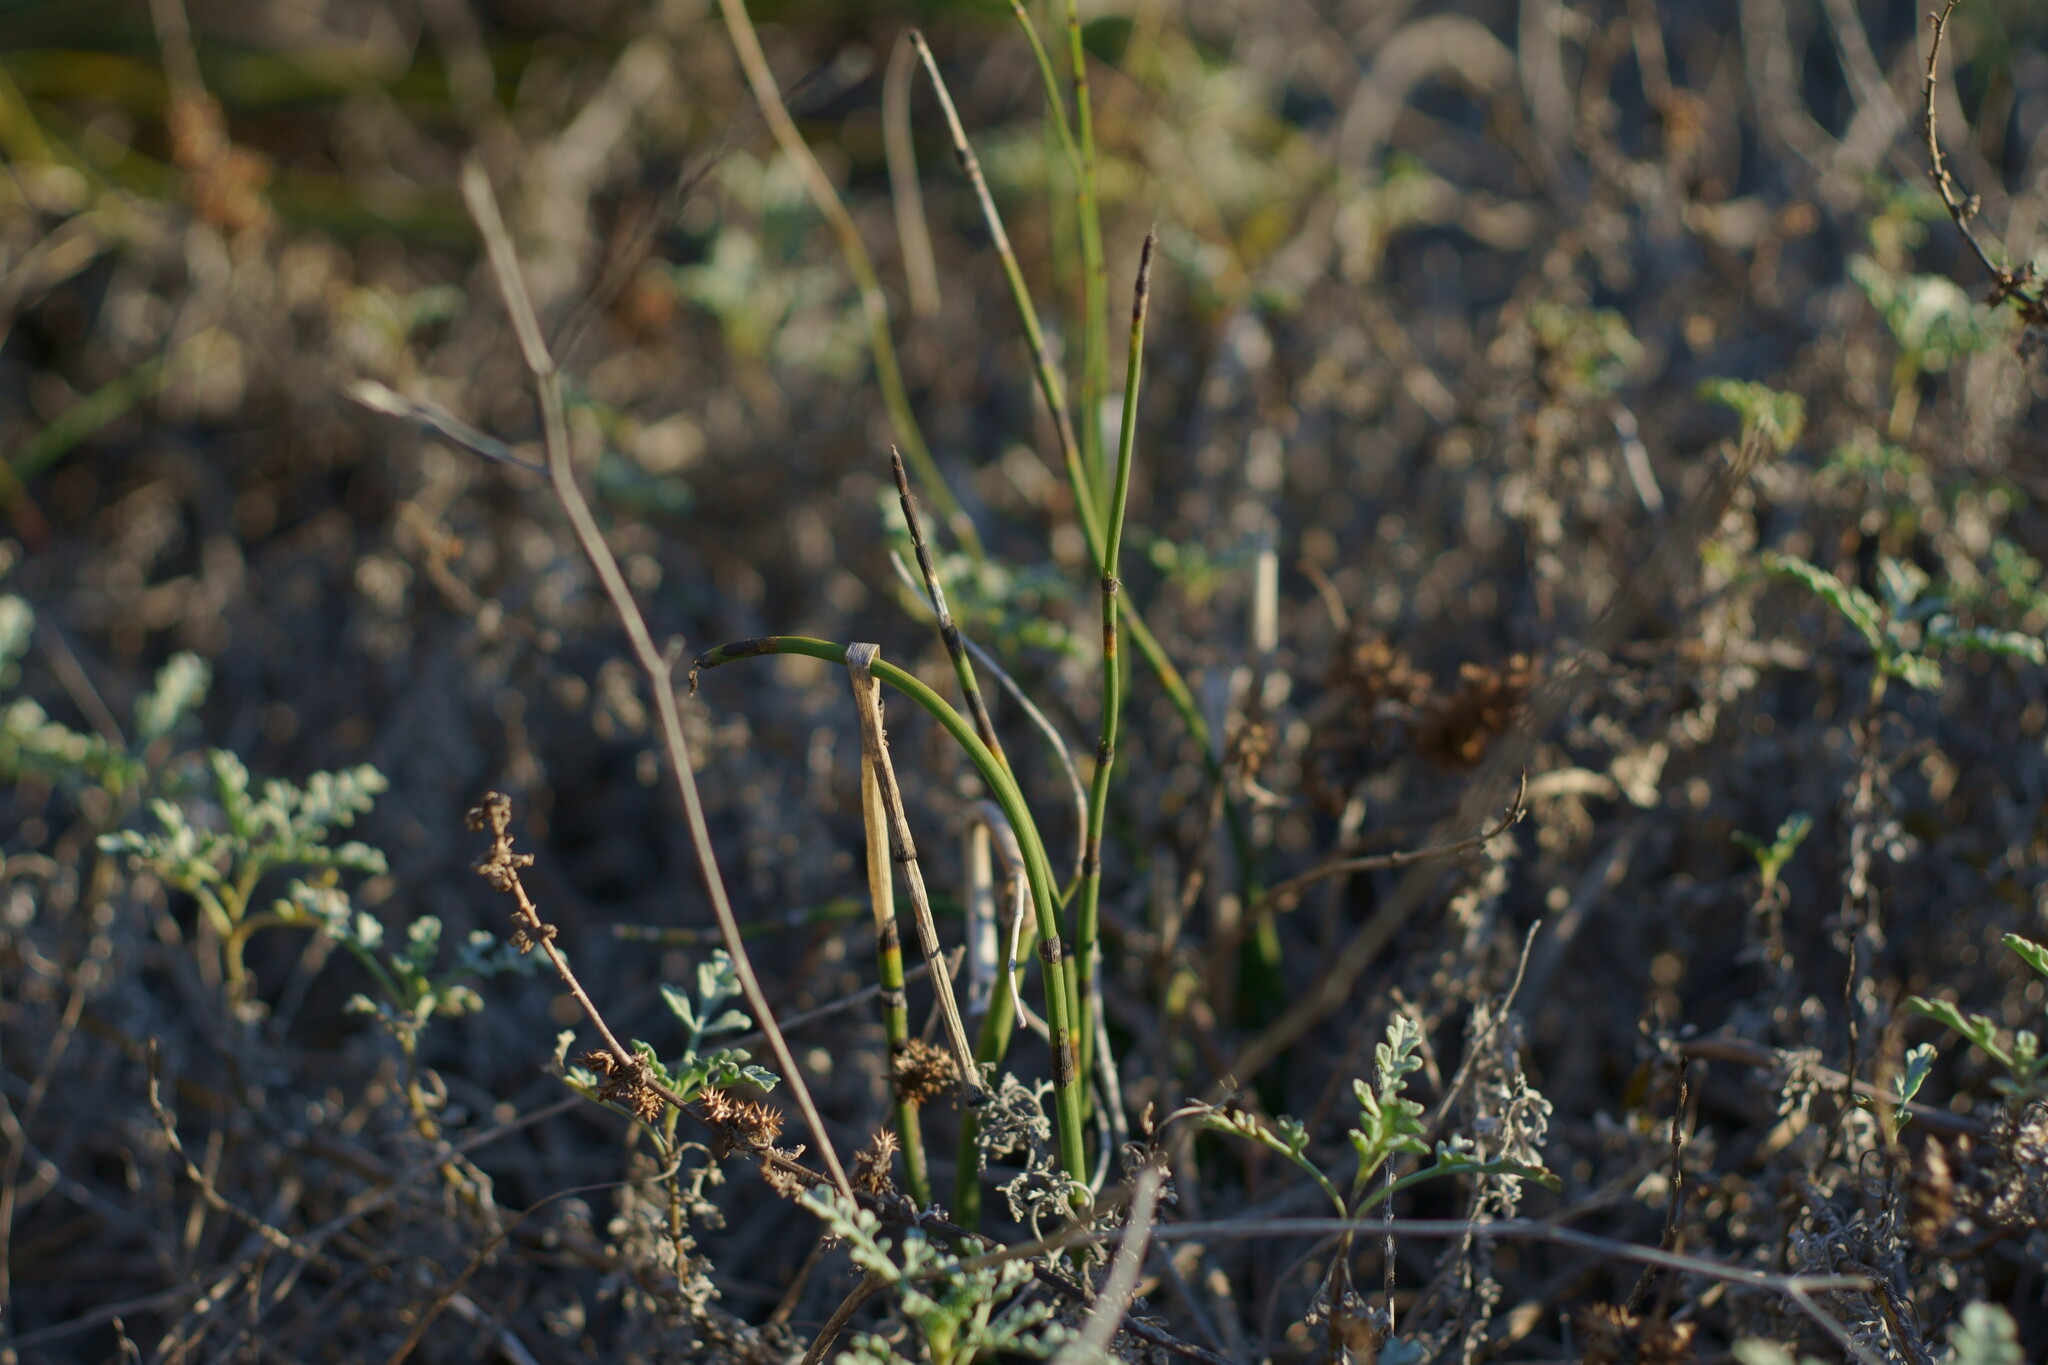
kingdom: Plantae
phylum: Tracheophyta
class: Polypodiopsida
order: Equisetales
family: Equisetaceae
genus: Equisetum
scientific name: Equisetum praealtum
